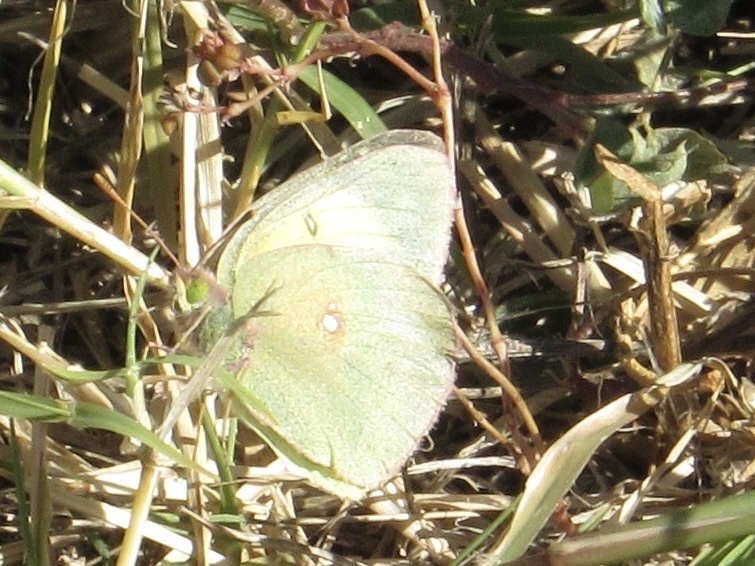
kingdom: Animalia
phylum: Arthropoda
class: Insecta
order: Lepidoptera
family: Pieridae
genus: Colias
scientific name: Colias philodice
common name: Clouded sulphur
